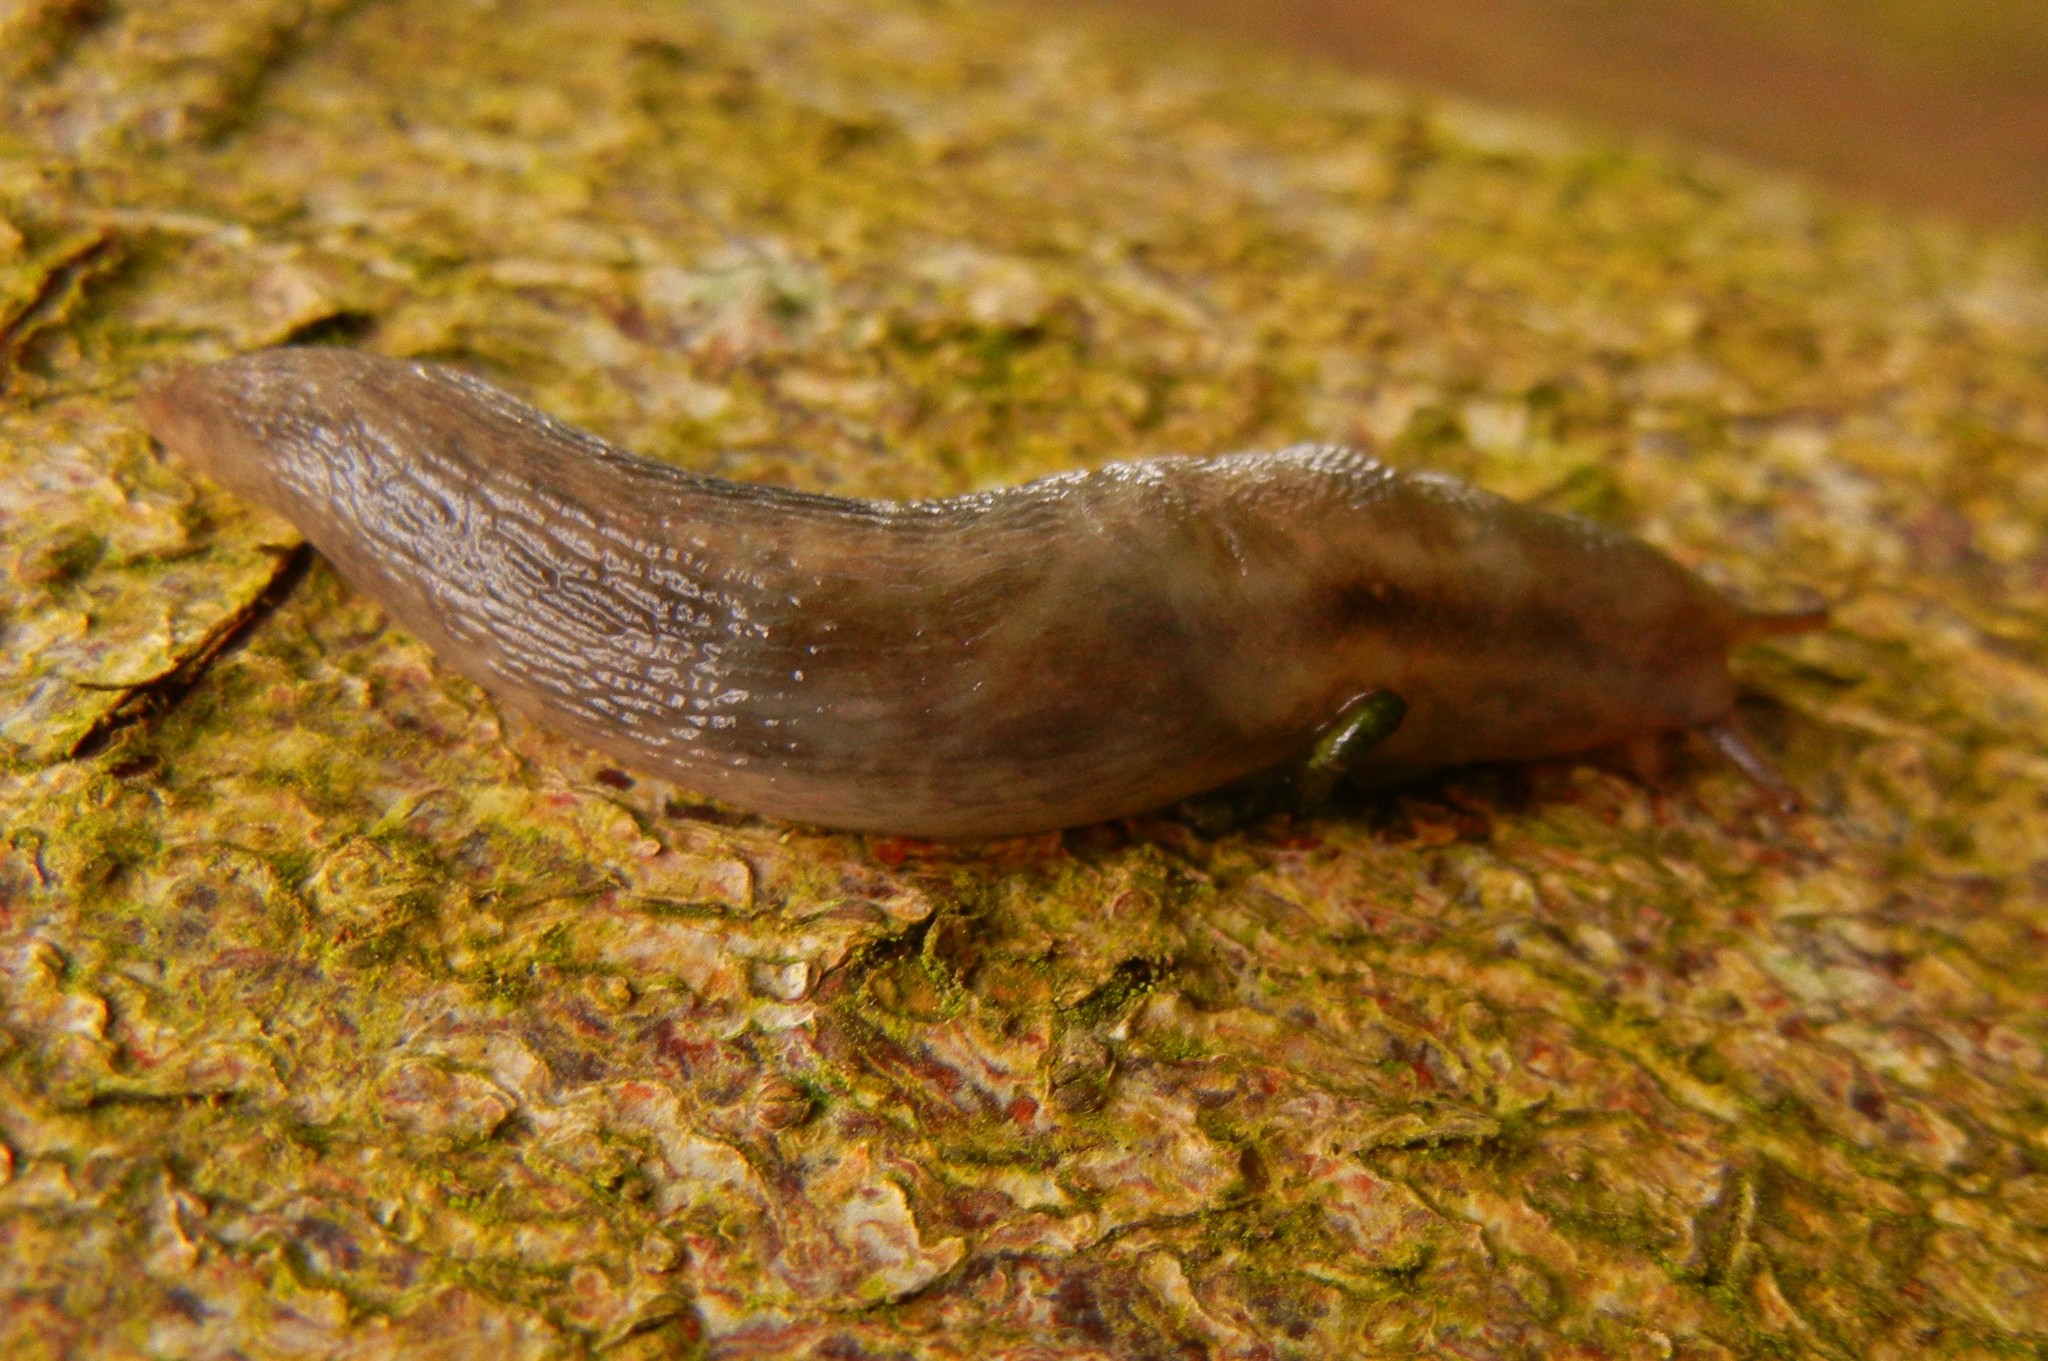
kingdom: Animalia
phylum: Mollusca
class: Gastropoda
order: Stylommatophora
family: Limacidae
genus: Lehmannia
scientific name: Lehmannia marginata
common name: Tree slug
